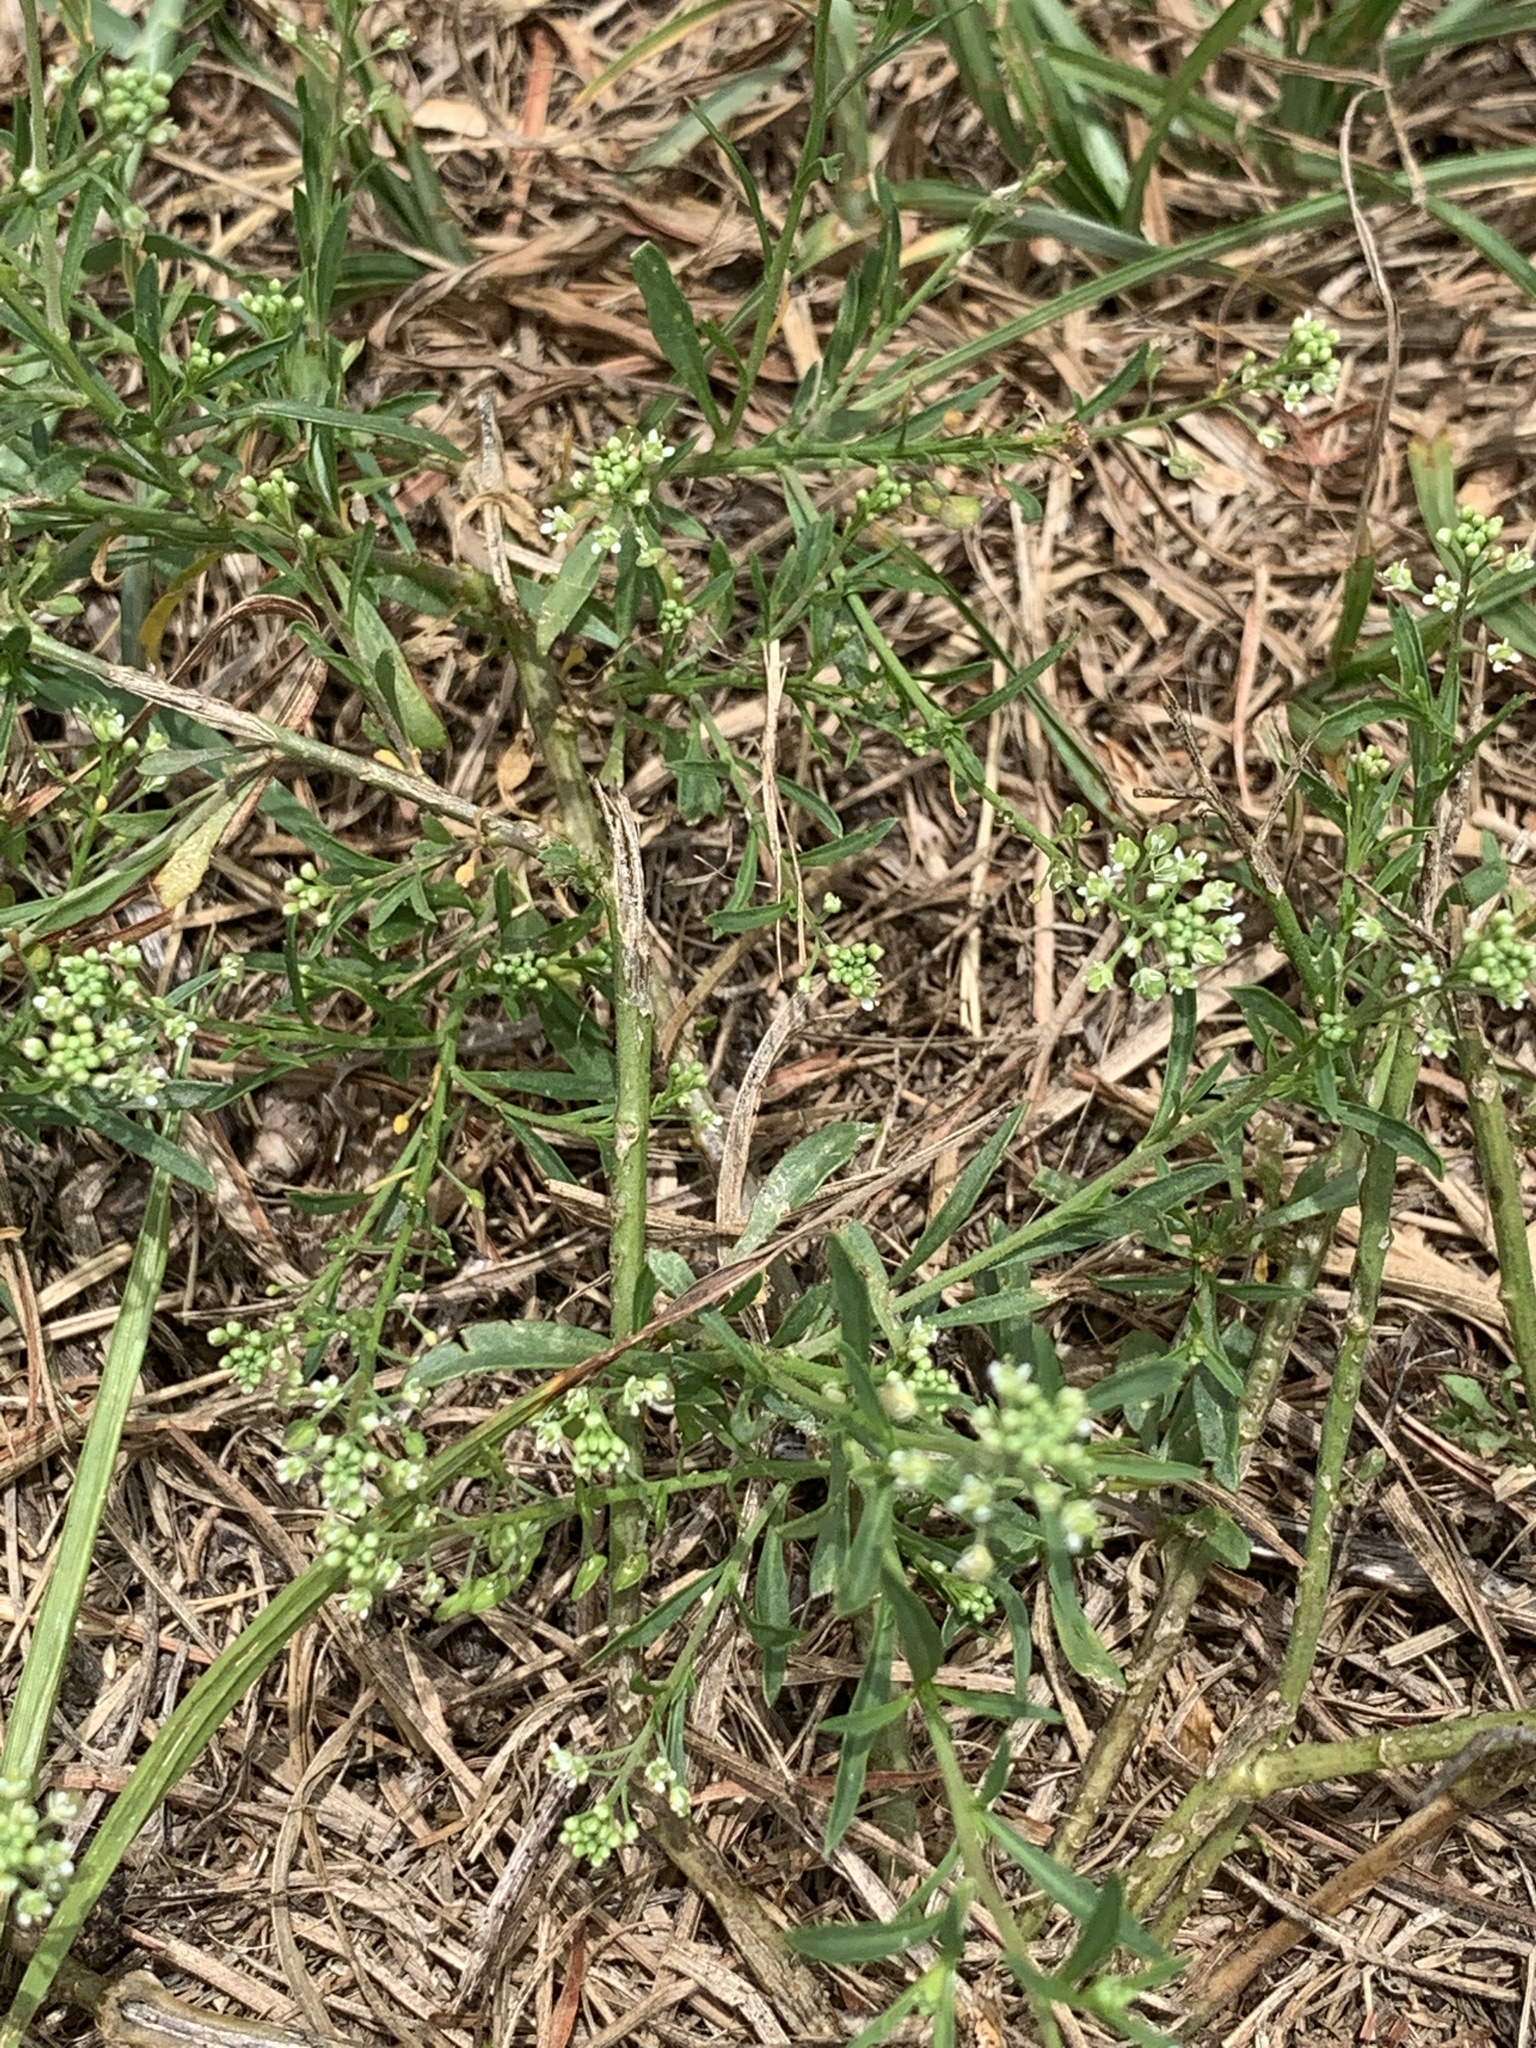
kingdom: Plantae
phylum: Tracheophyta
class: Magnoliopsida
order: Brassicales
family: Brassicaceae
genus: Lepidium
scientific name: Lepidium virginicum
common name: Least pepperwort
